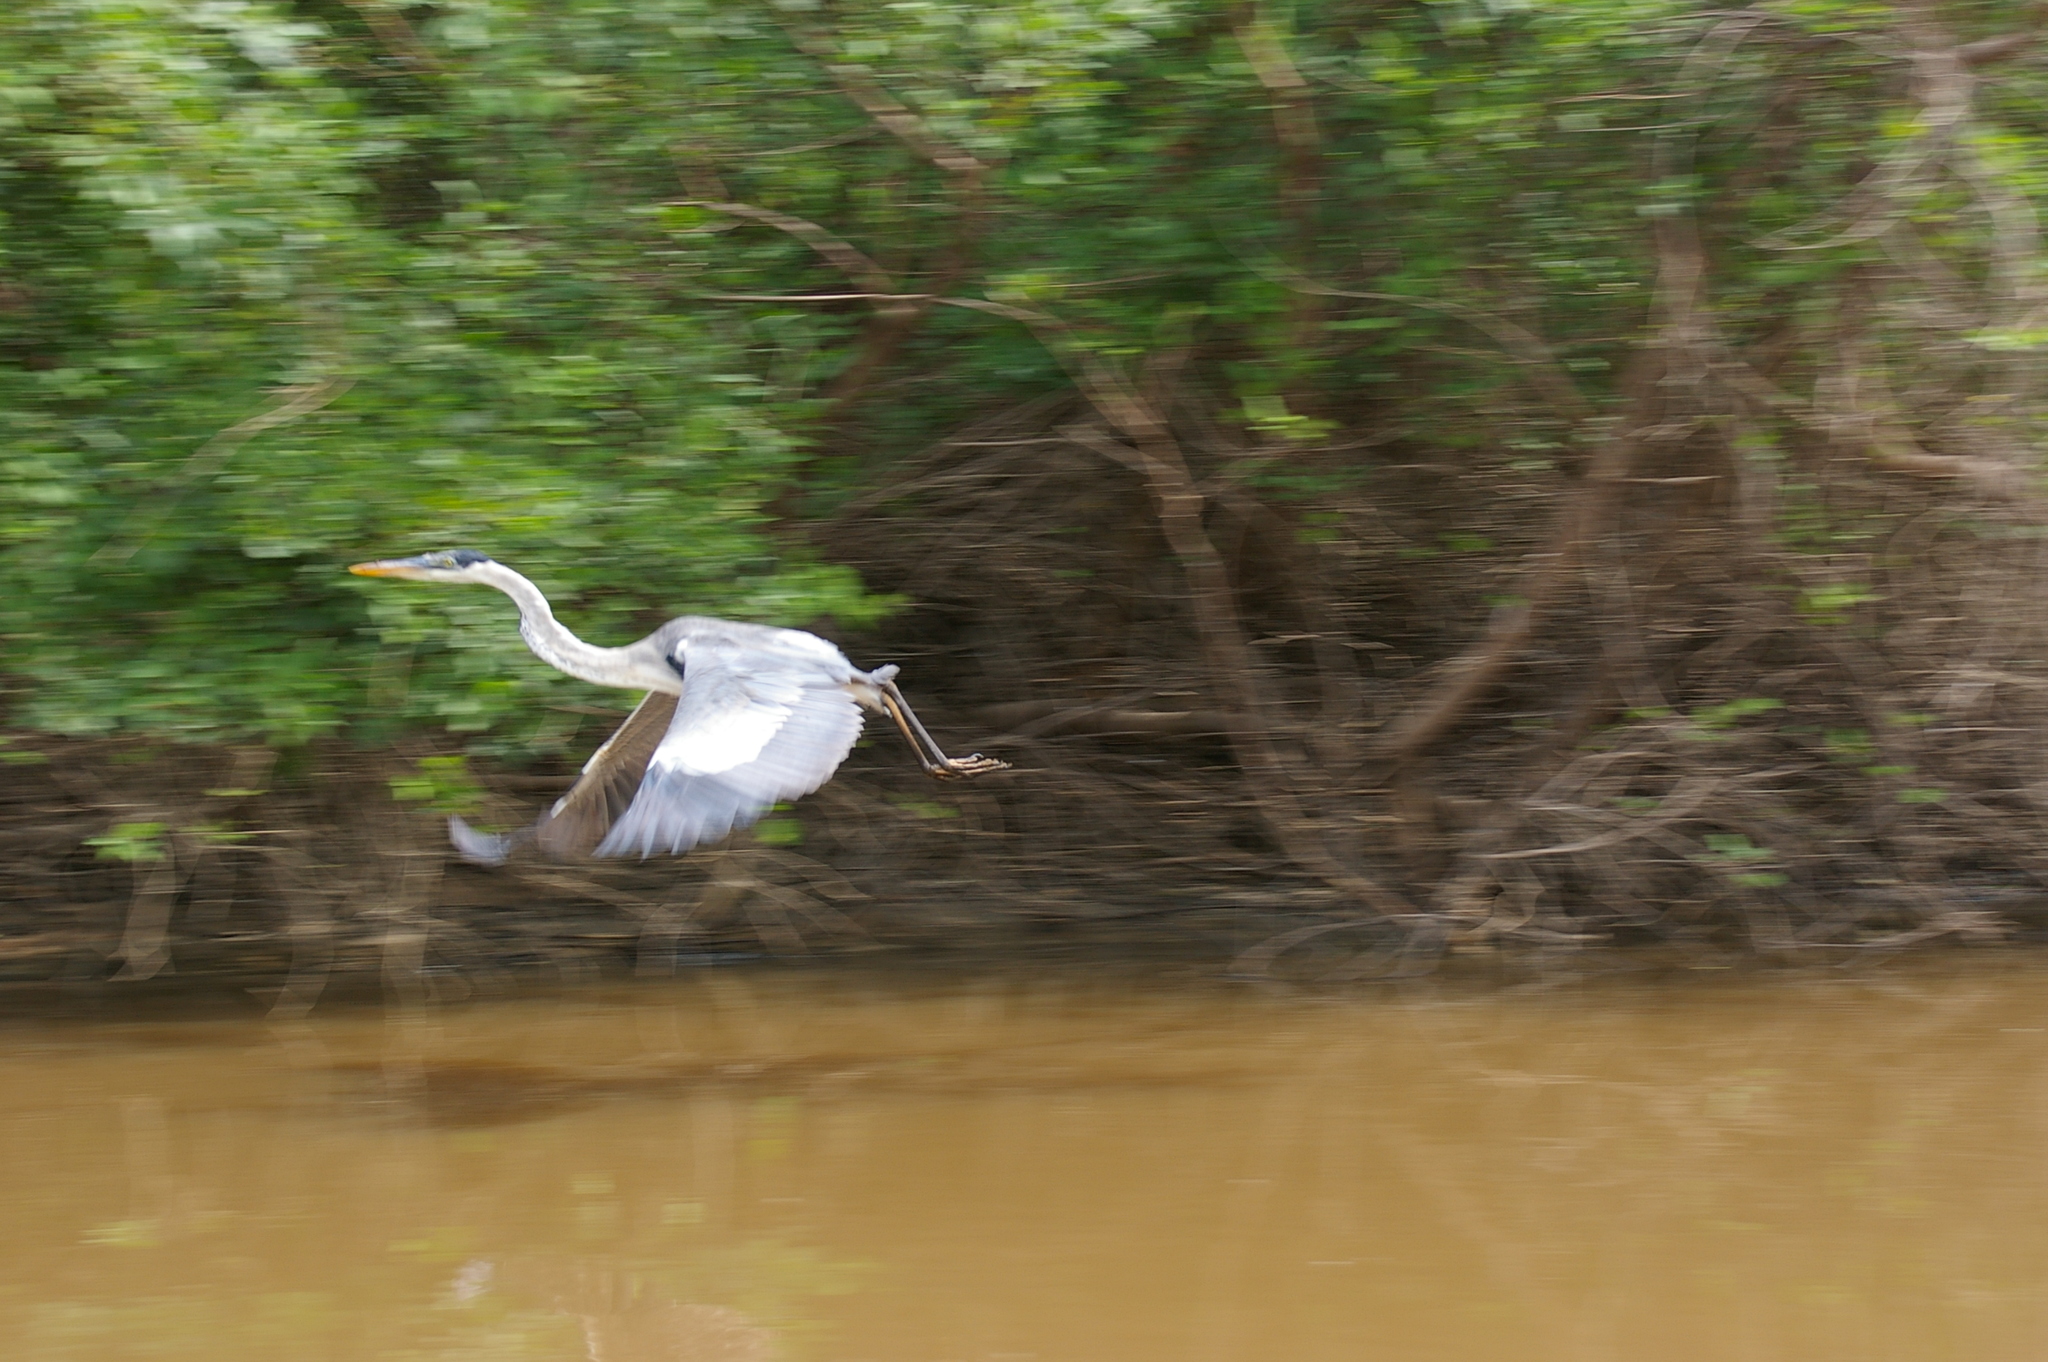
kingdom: Animalia
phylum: Chordata
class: Aves
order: Pelecaniformes
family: Ardeidae
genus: Ardea
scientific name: Ardea cocoi
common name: Cocoi heron
